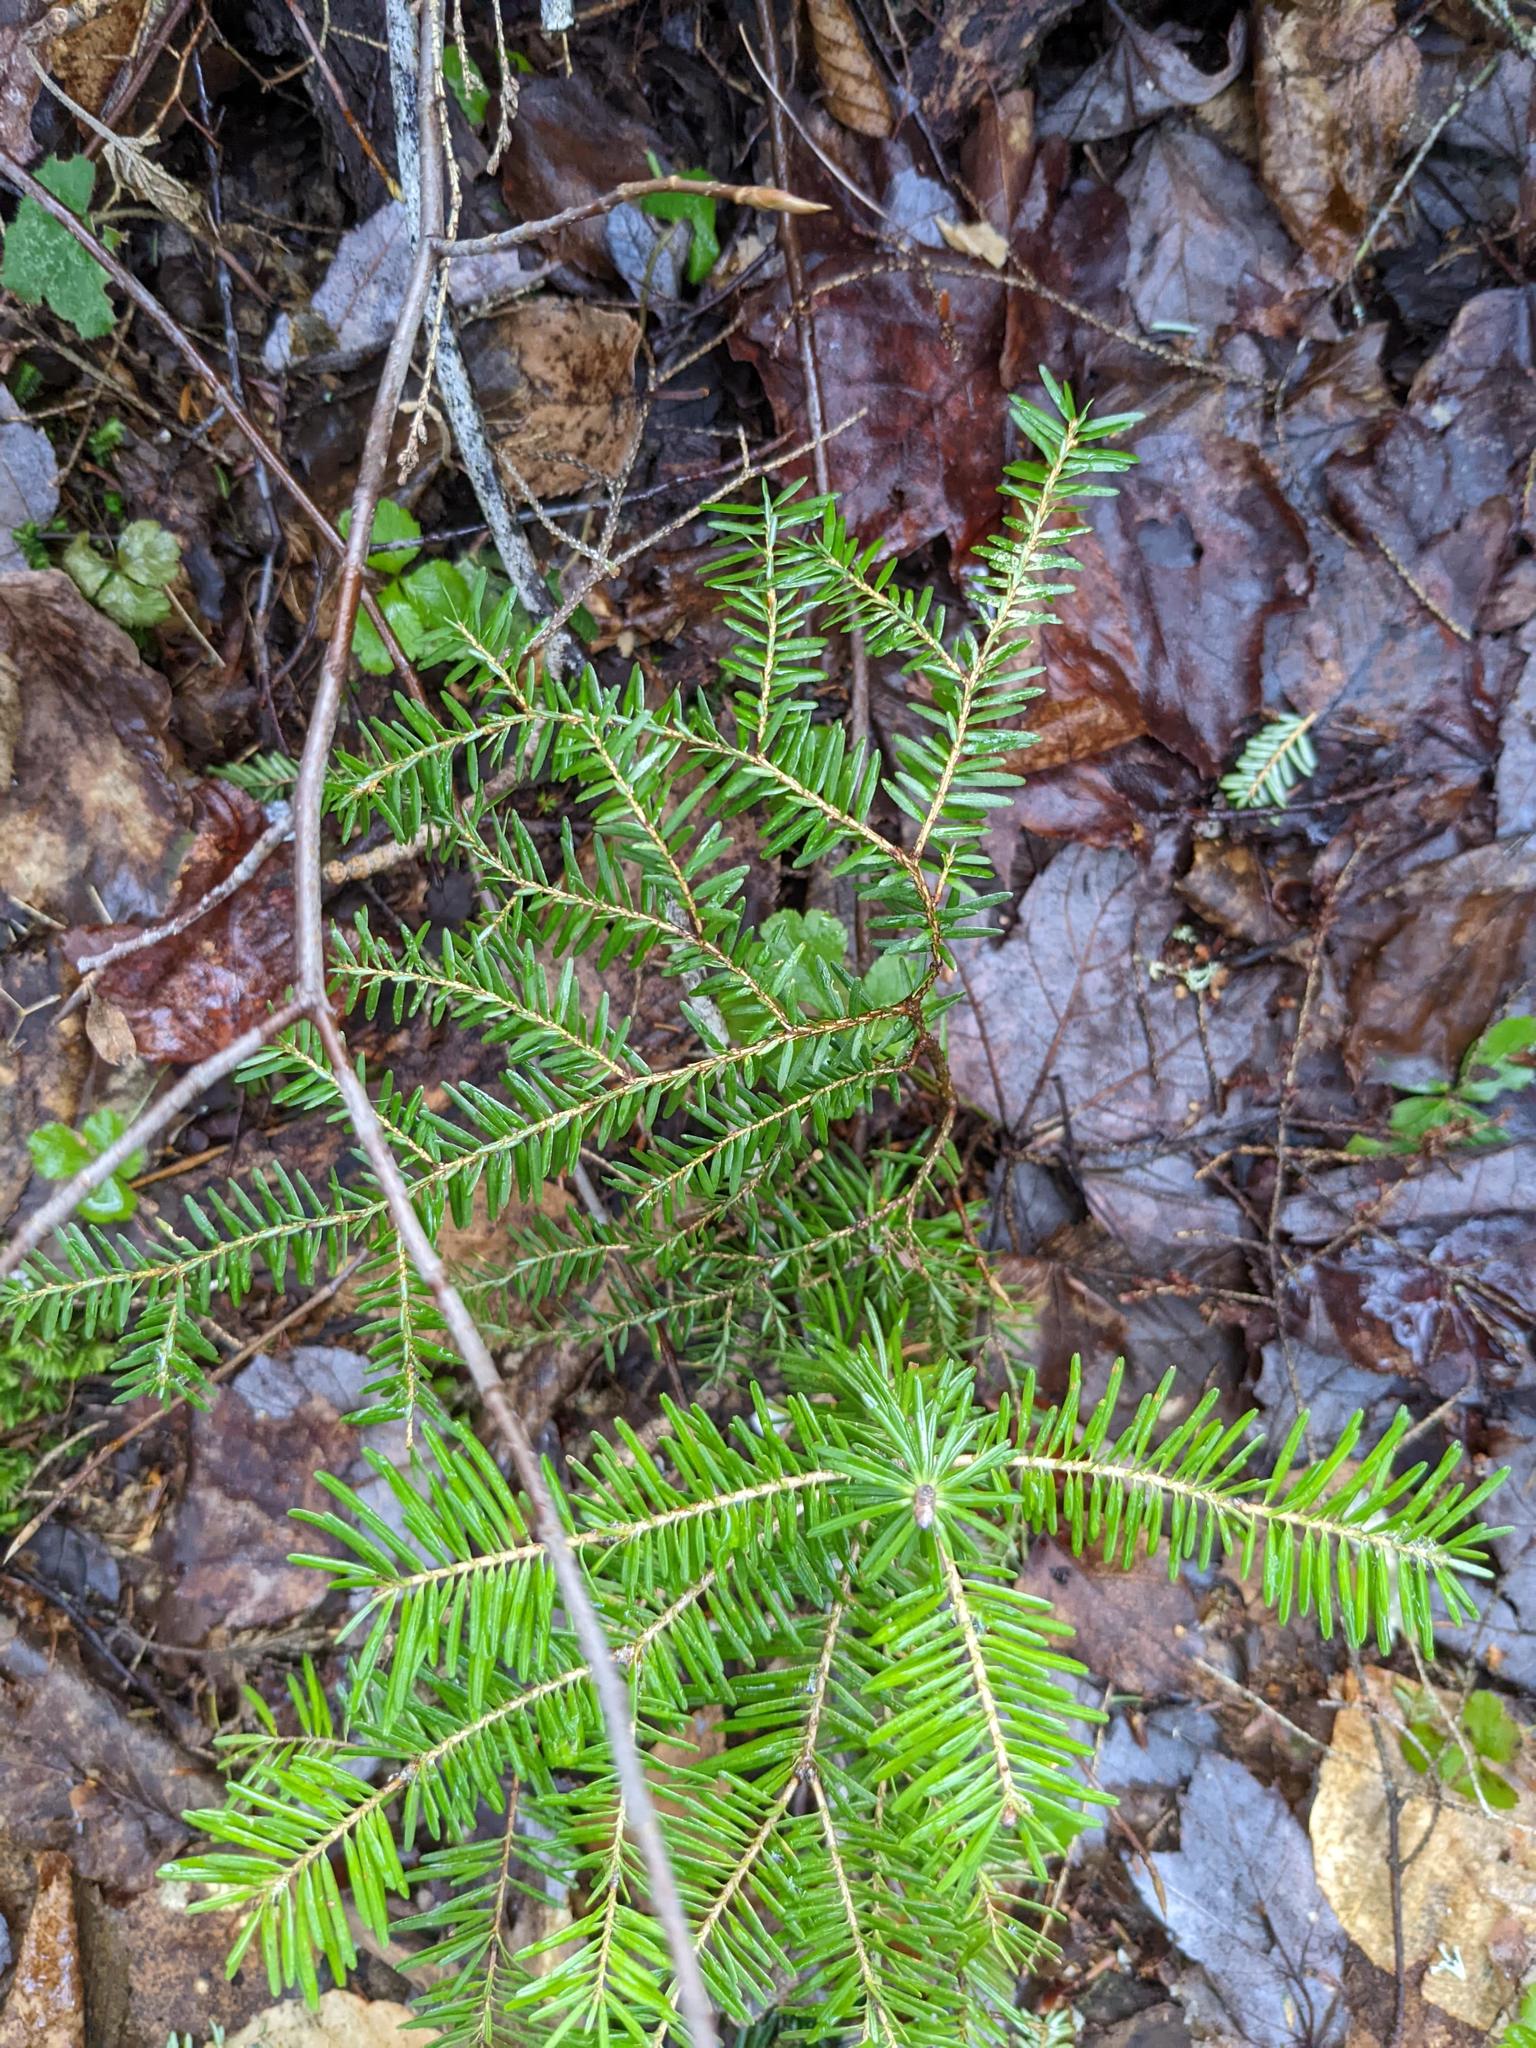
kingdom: Plantae
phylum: Tracheophyta
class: Pinopsida
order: Pinales
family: Pinaceae
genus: Tsuga
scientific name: Tsuga canadensis
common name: Eastern hemlock
